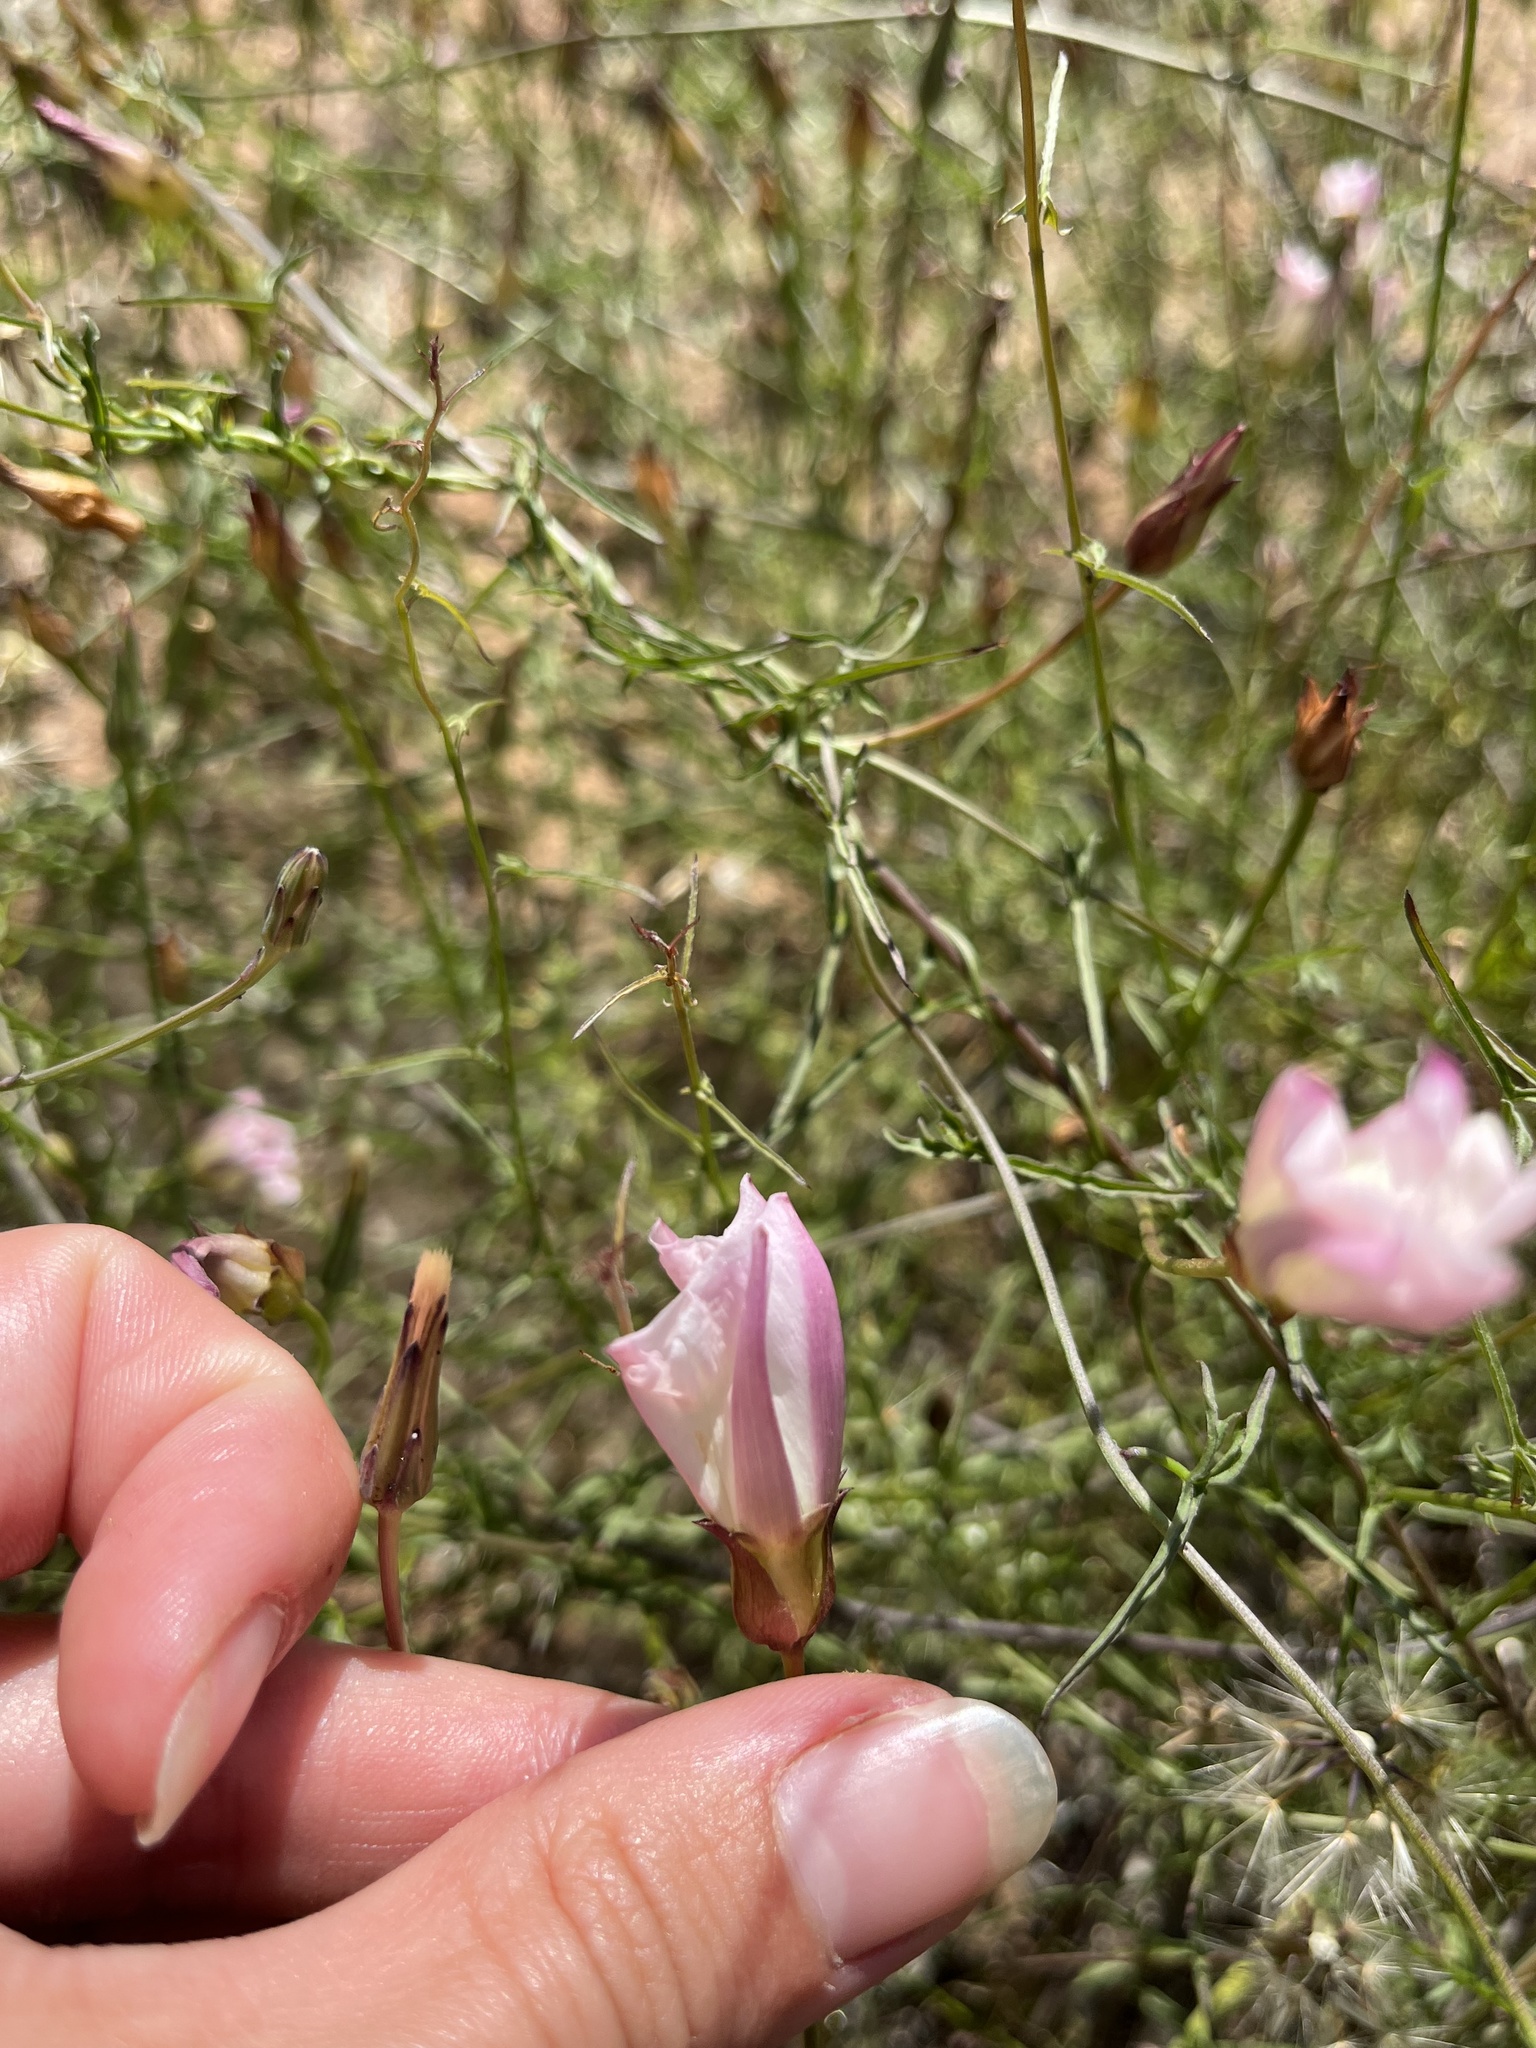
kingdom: Plantae
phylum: Tracheophyta
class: Magnoliopsida
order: Solanales
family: Convolvulaceae
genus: Calystegia
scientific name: Calystegia macrostegia
